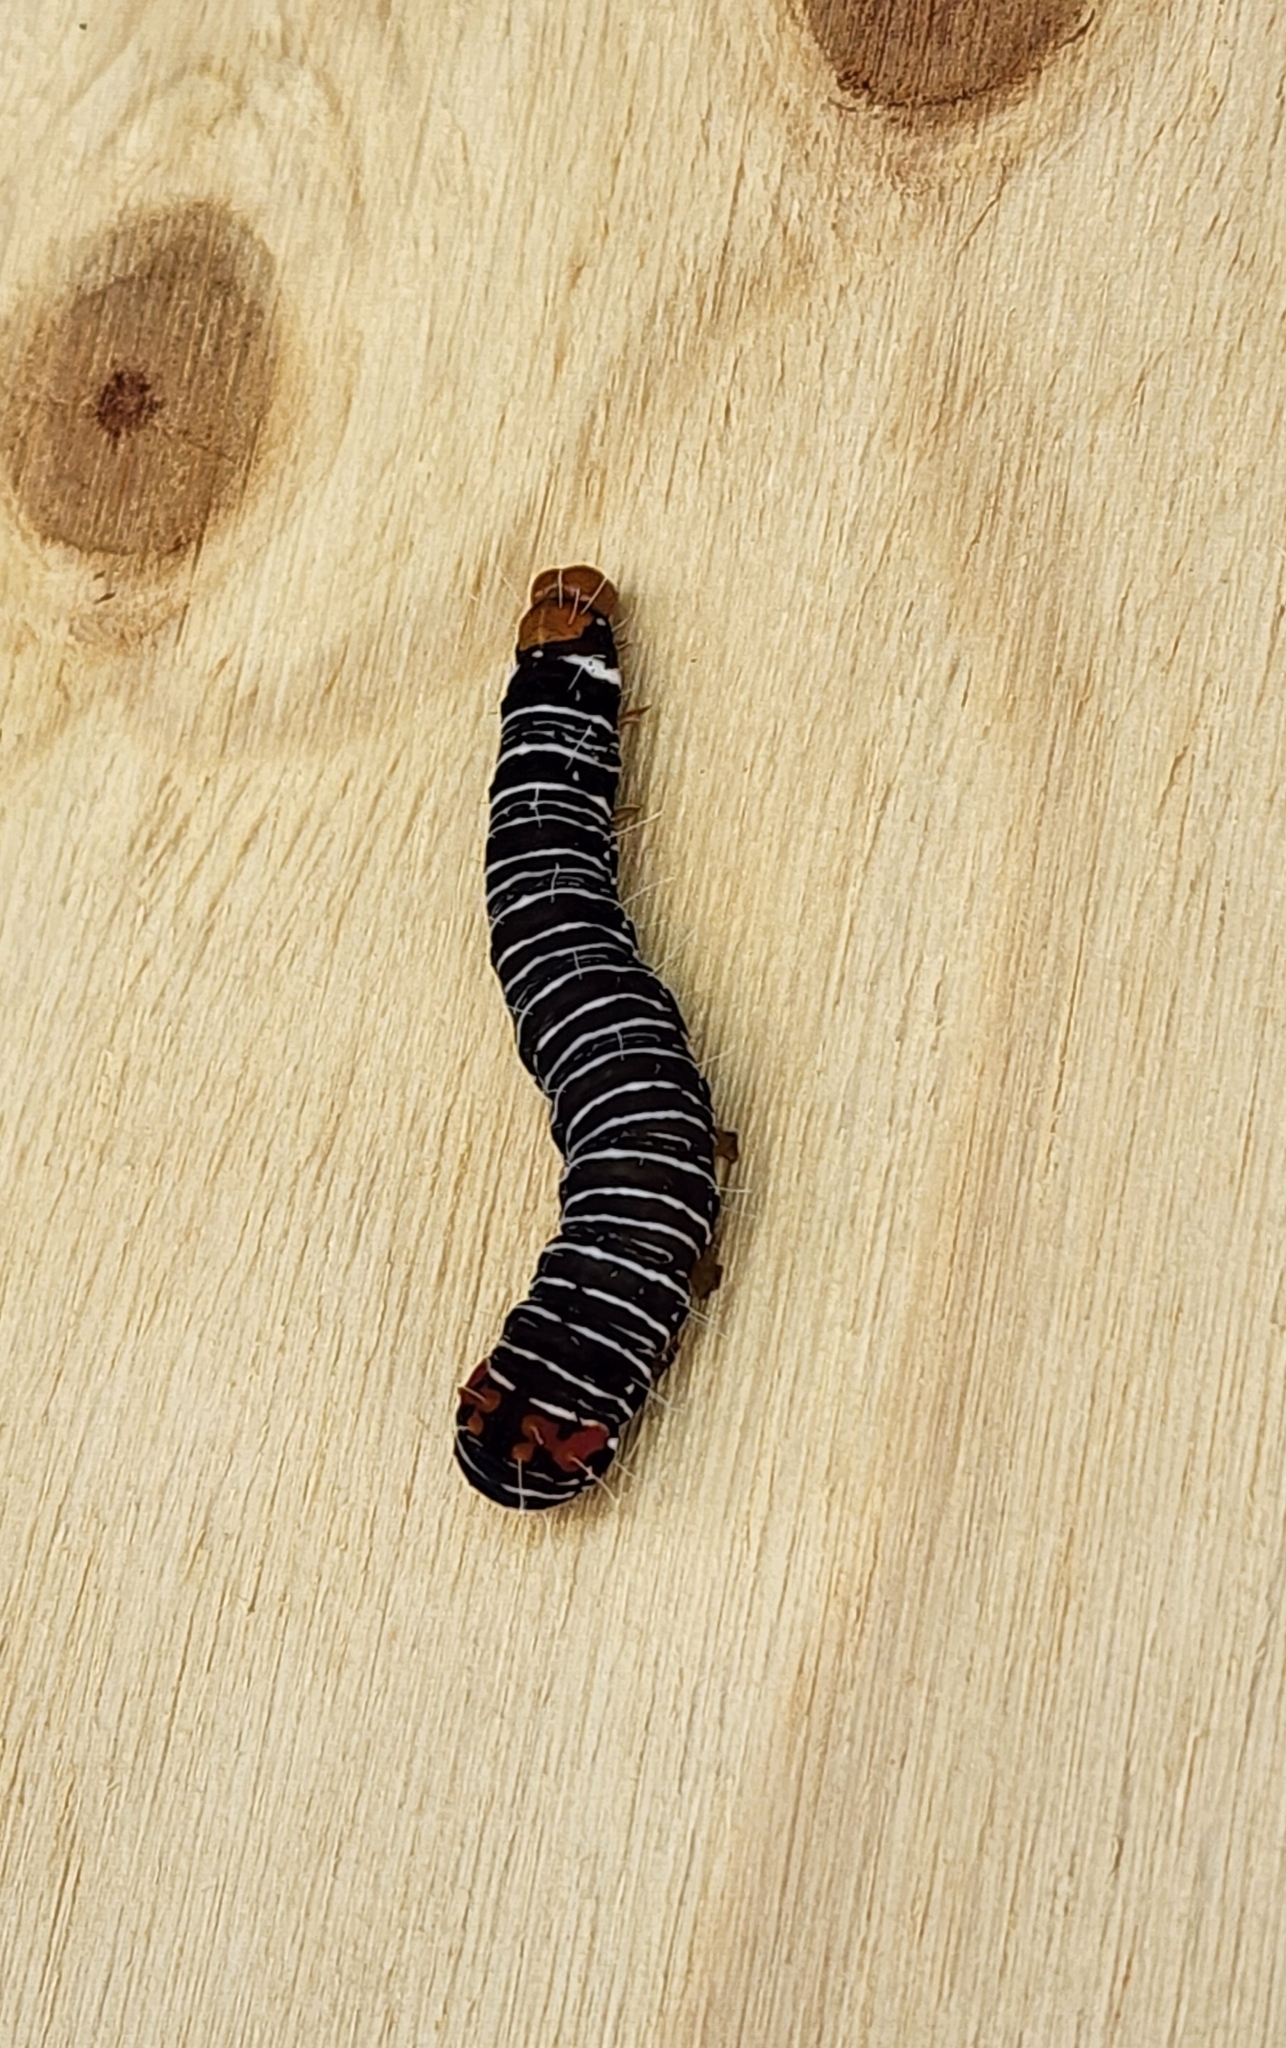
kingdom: Animalia
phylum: Arthropoda
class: Insecta
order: Lepidoptera
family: Noctuidae
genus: Comocrus
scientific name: Comocrus behri
